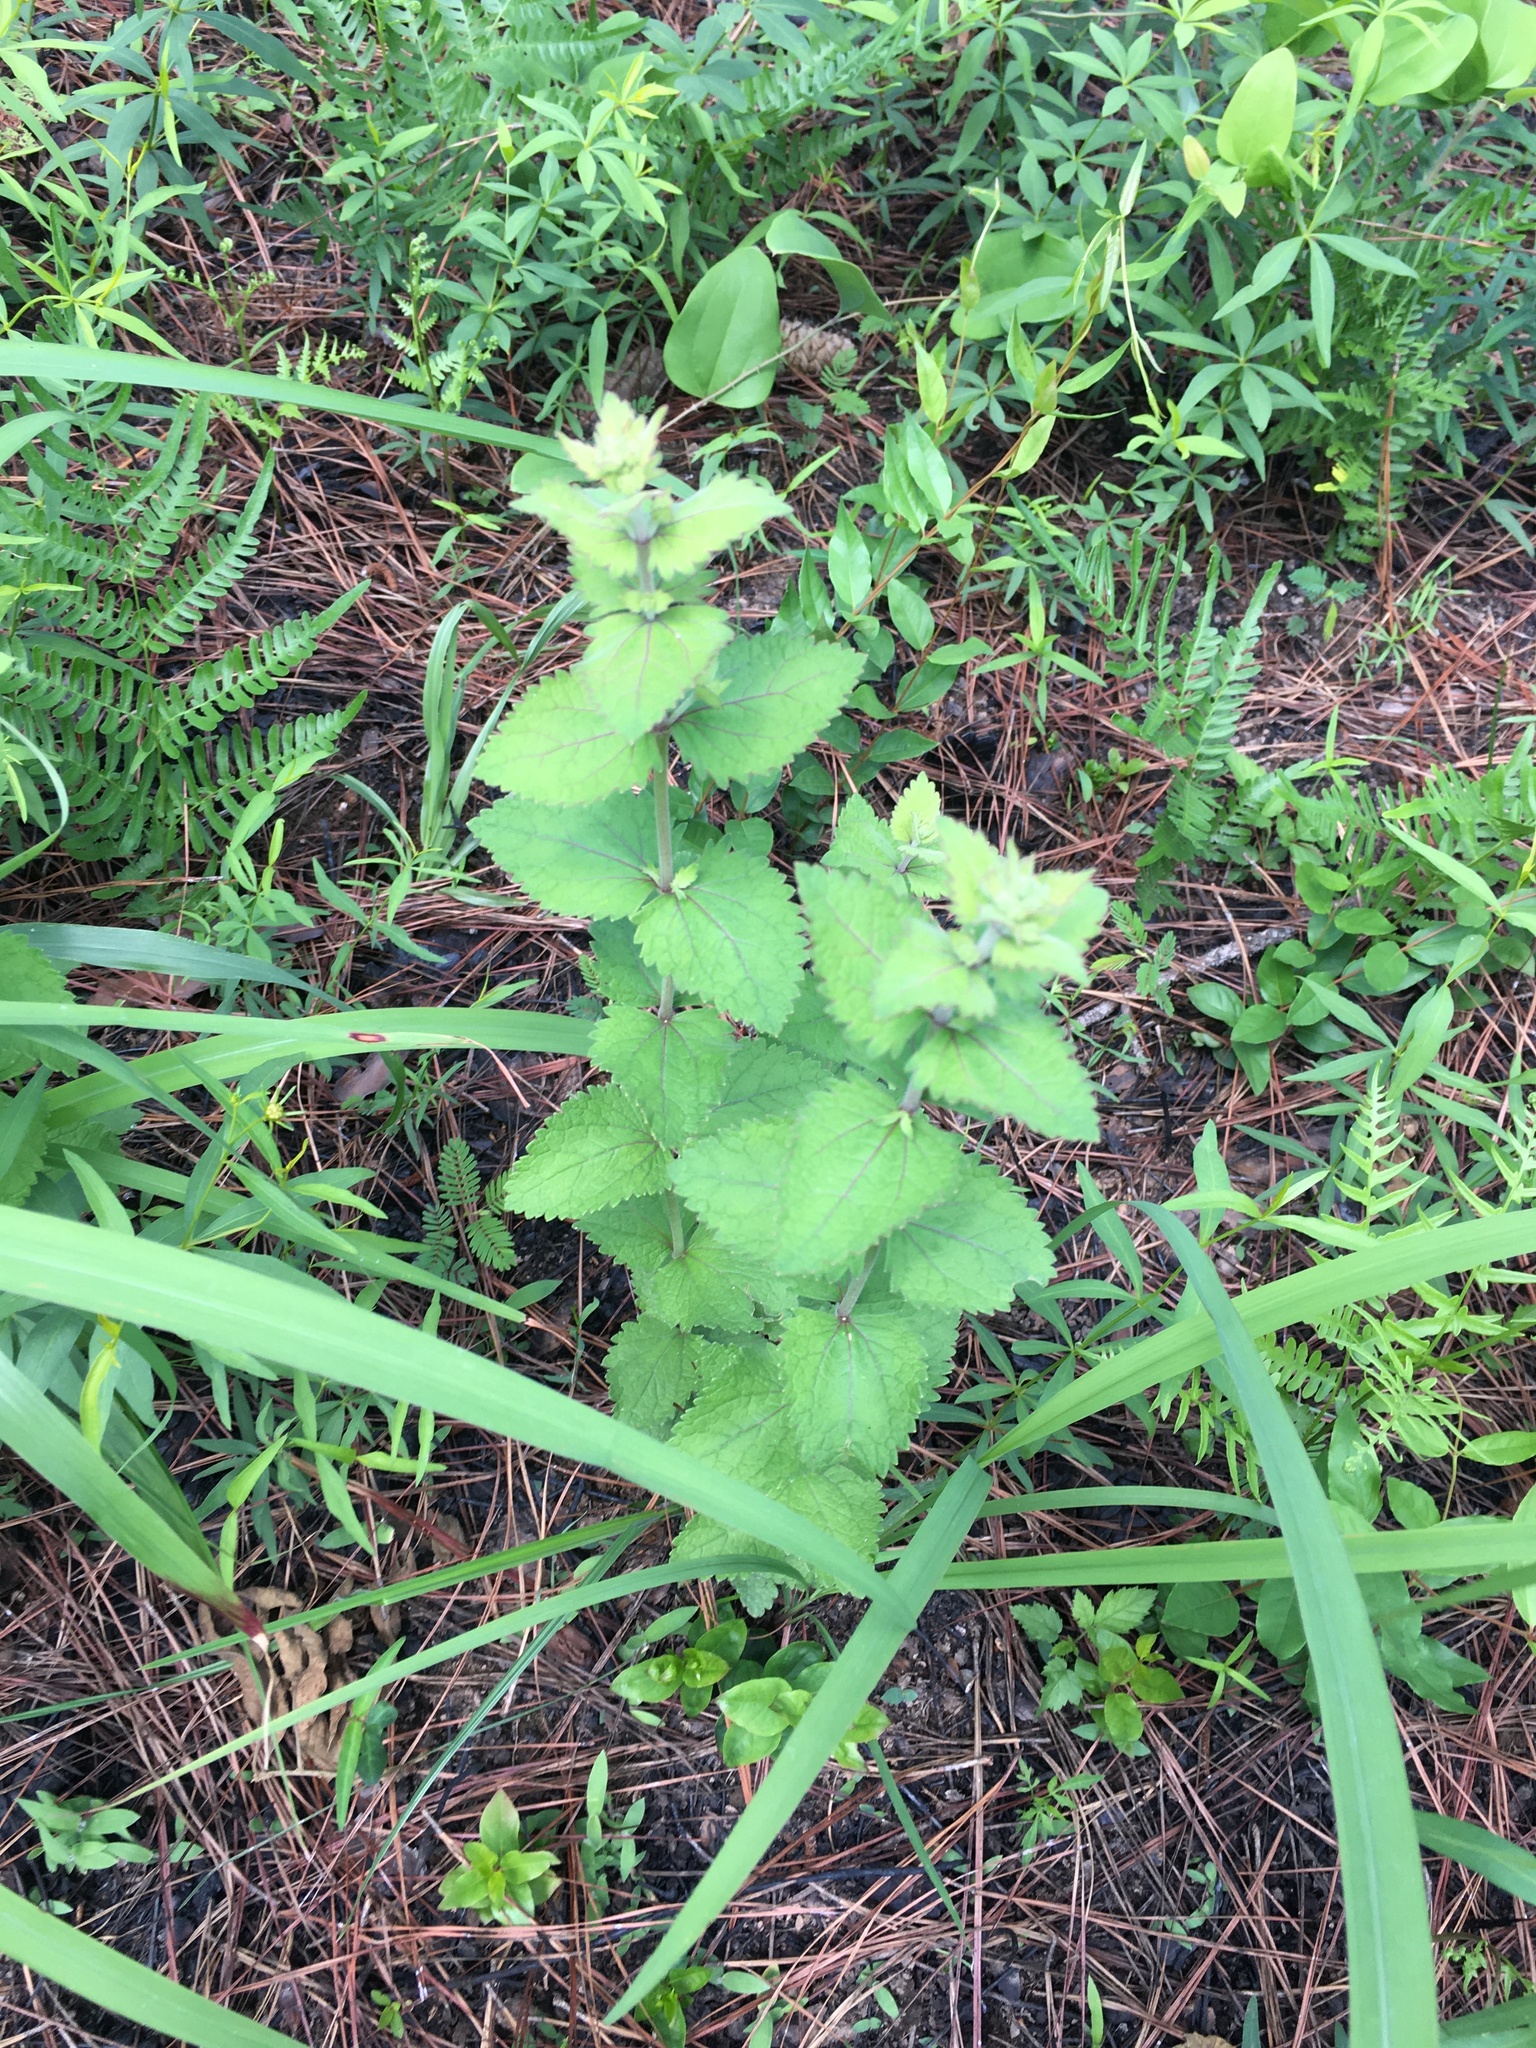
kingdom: Plantae
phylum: Tracheophyta
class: Magnoliopsida
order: Asterales
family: Asteraceae
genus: Eupatorium
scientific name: Eupatorium rotundifolium
